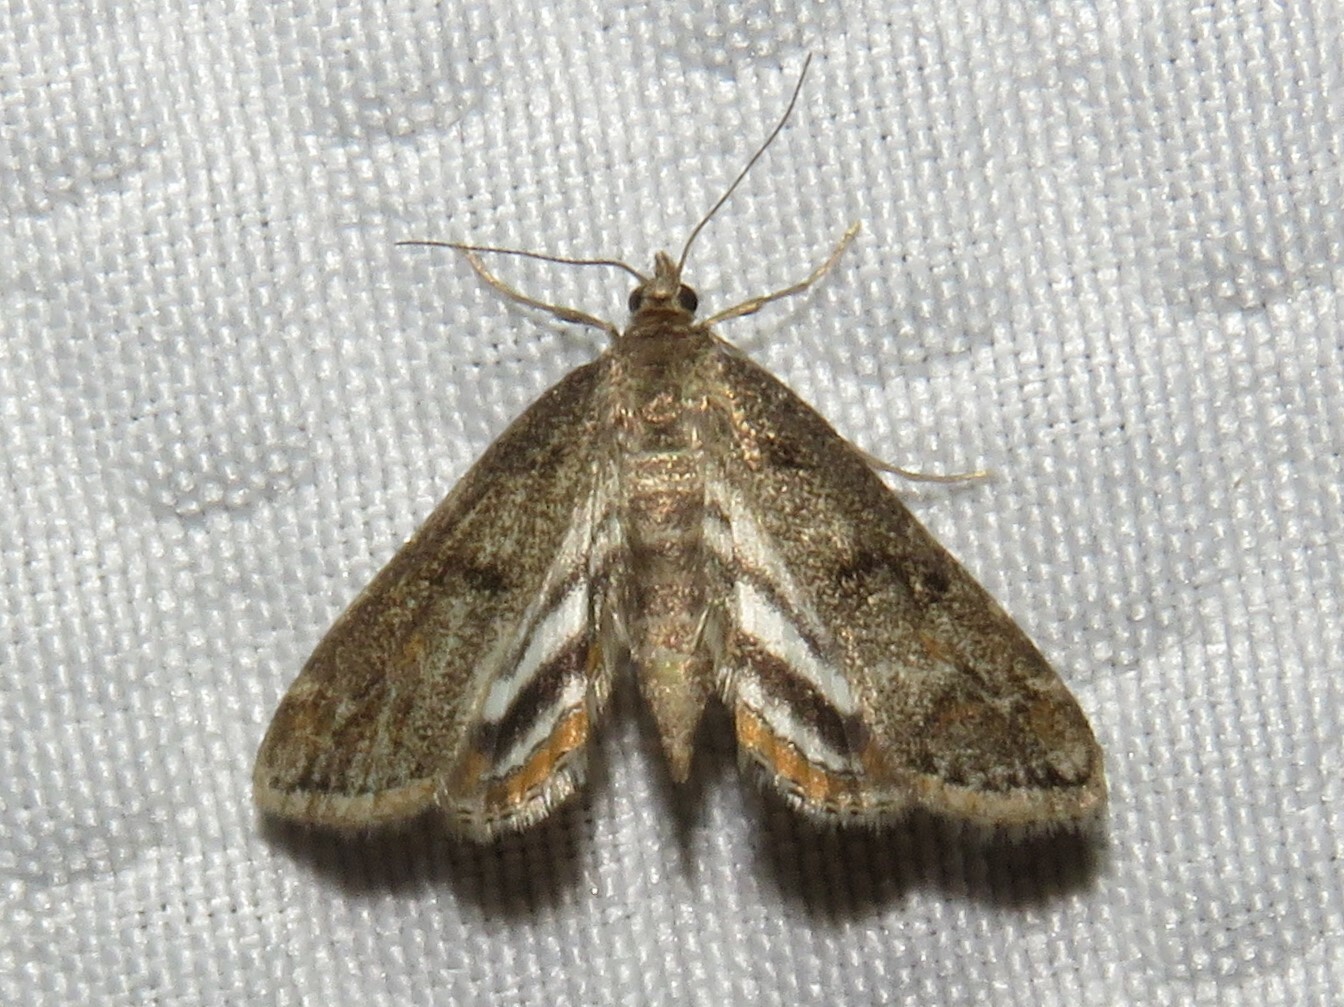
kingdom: Animalia
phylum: Arthropoda
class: Insecta
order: Lepidoptera
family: Crambidae
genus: Parapoynx
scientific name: Parapoynx obscuralis
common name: American china-mark
